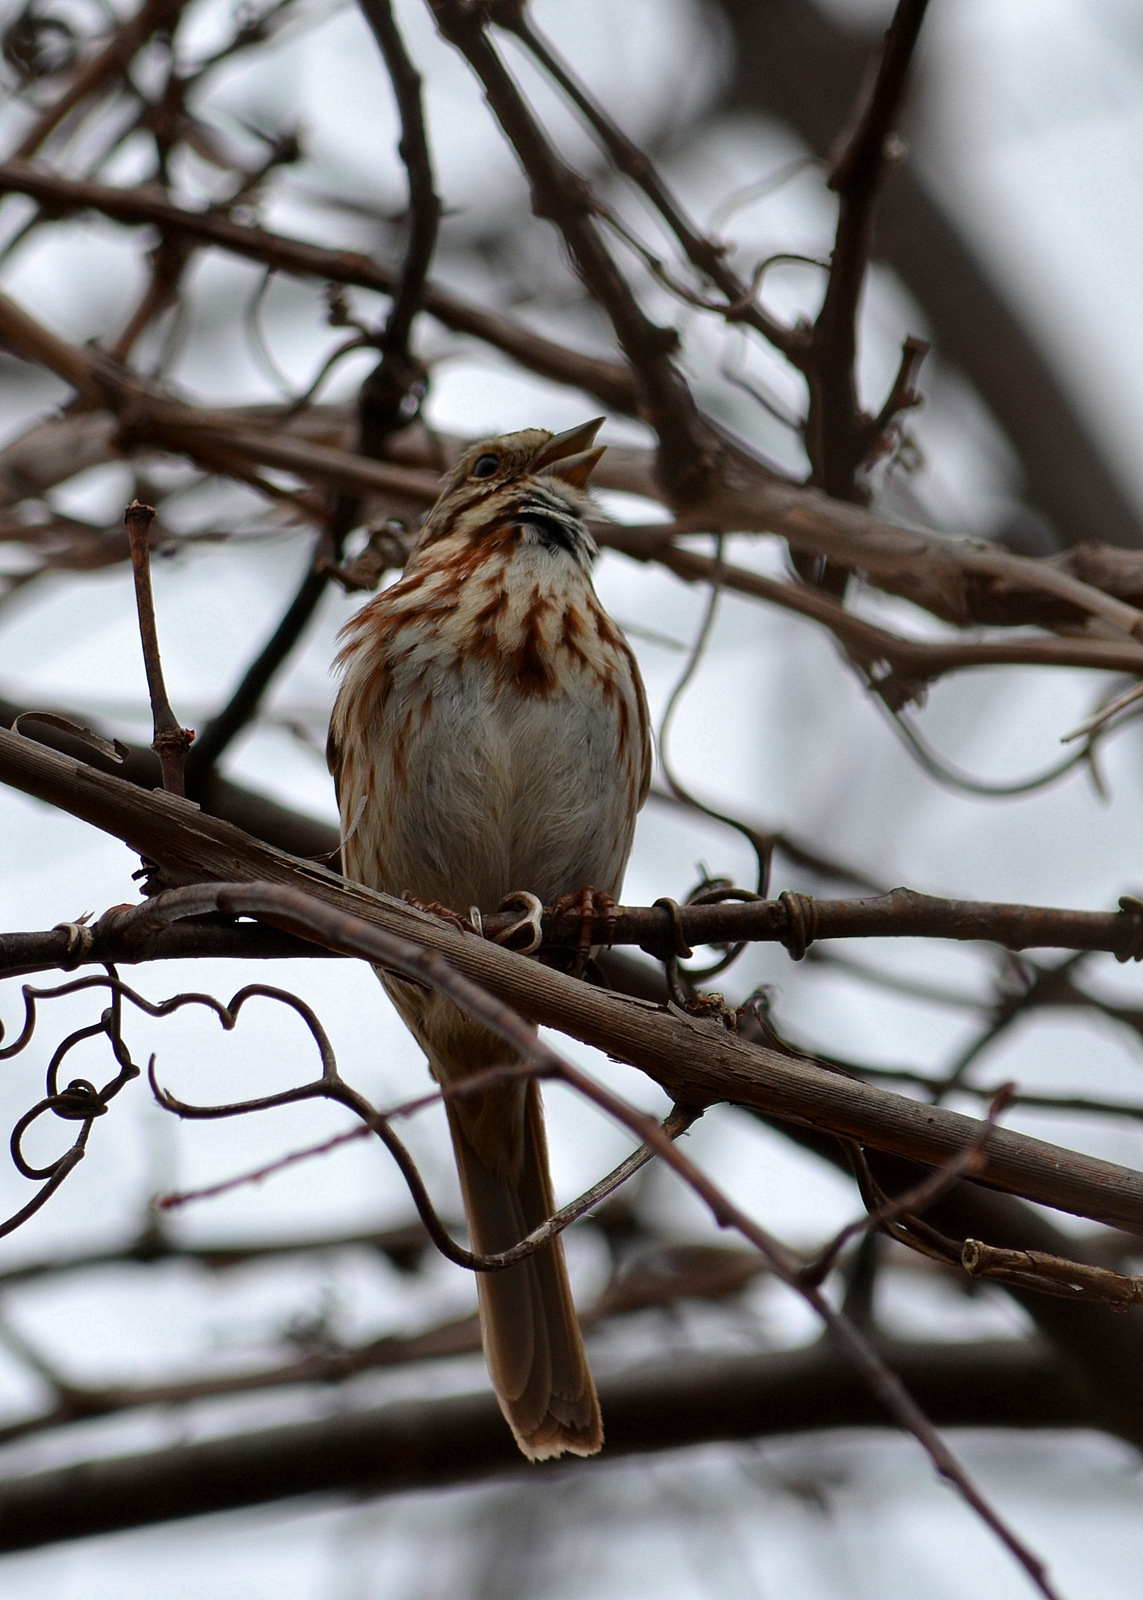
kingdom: Animalia
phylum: Chordata
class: Aves
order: Passeriformes
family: Passerellidae
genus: Melospiza
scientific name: Melospiza melodia
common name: Song sparrow
